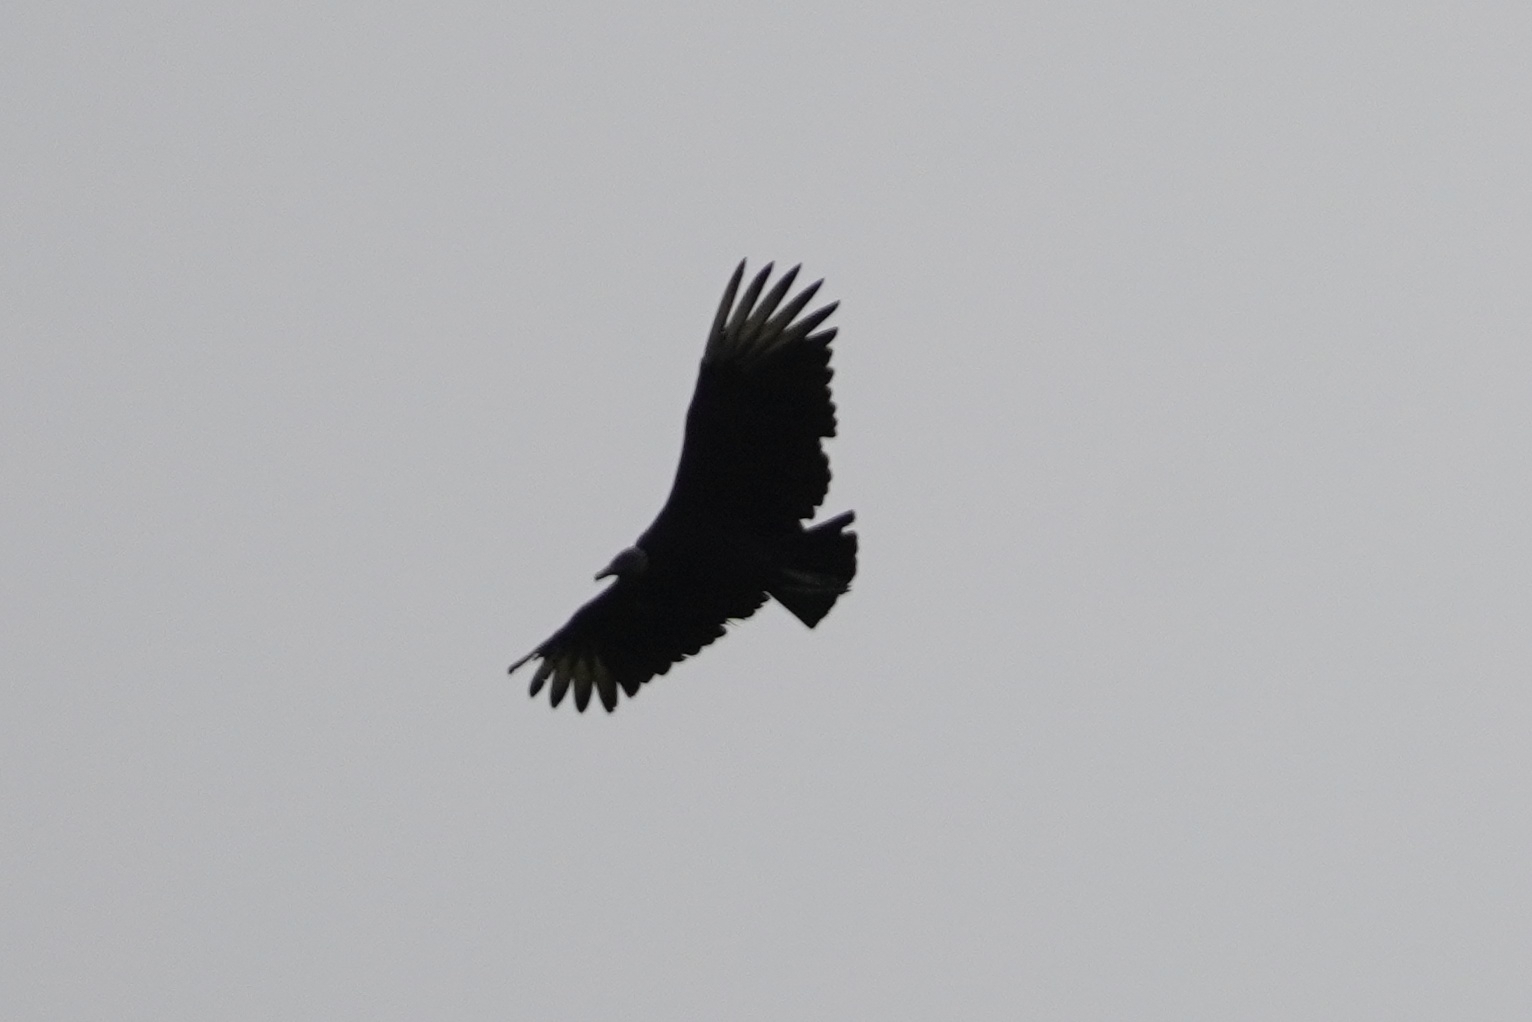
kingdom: Animalia
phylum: Chordata
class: Aves
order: Accipitriformes
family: Cathartidae
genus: Coragyps
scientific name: Coragyps atratus
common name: Black vulture
